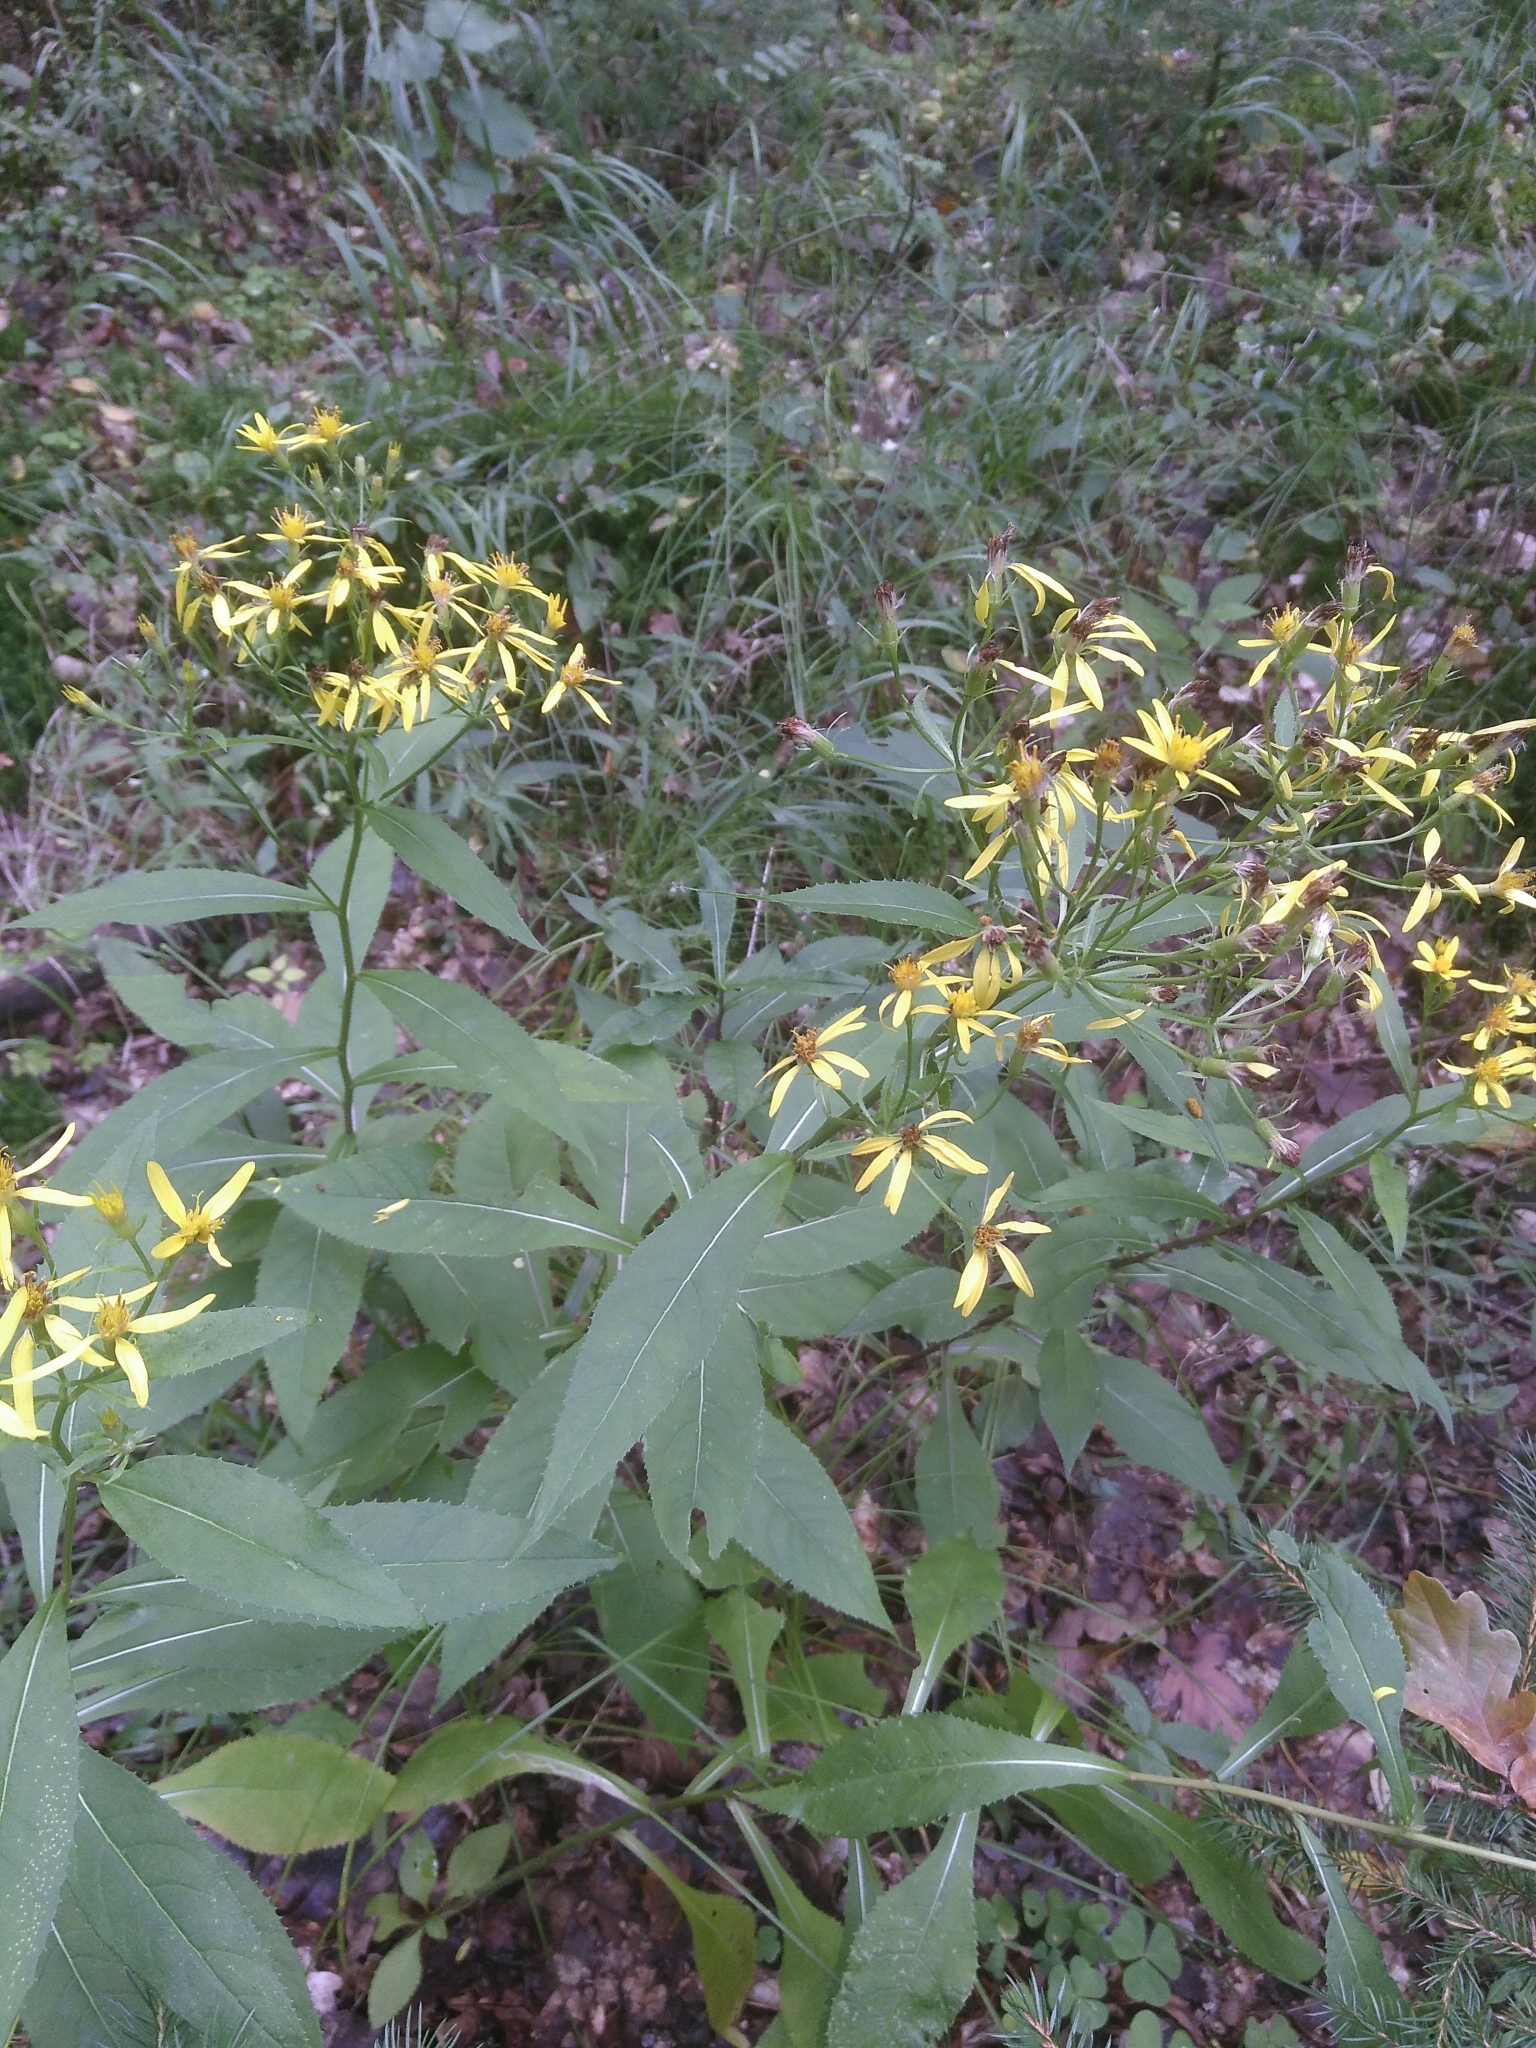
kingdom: Plantae
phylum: Tracheophyta
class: Magnoliopsida
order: Asterales
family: Asteraceae
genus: Senecio
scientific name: Senecio ovatus
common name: Wood ragwort
